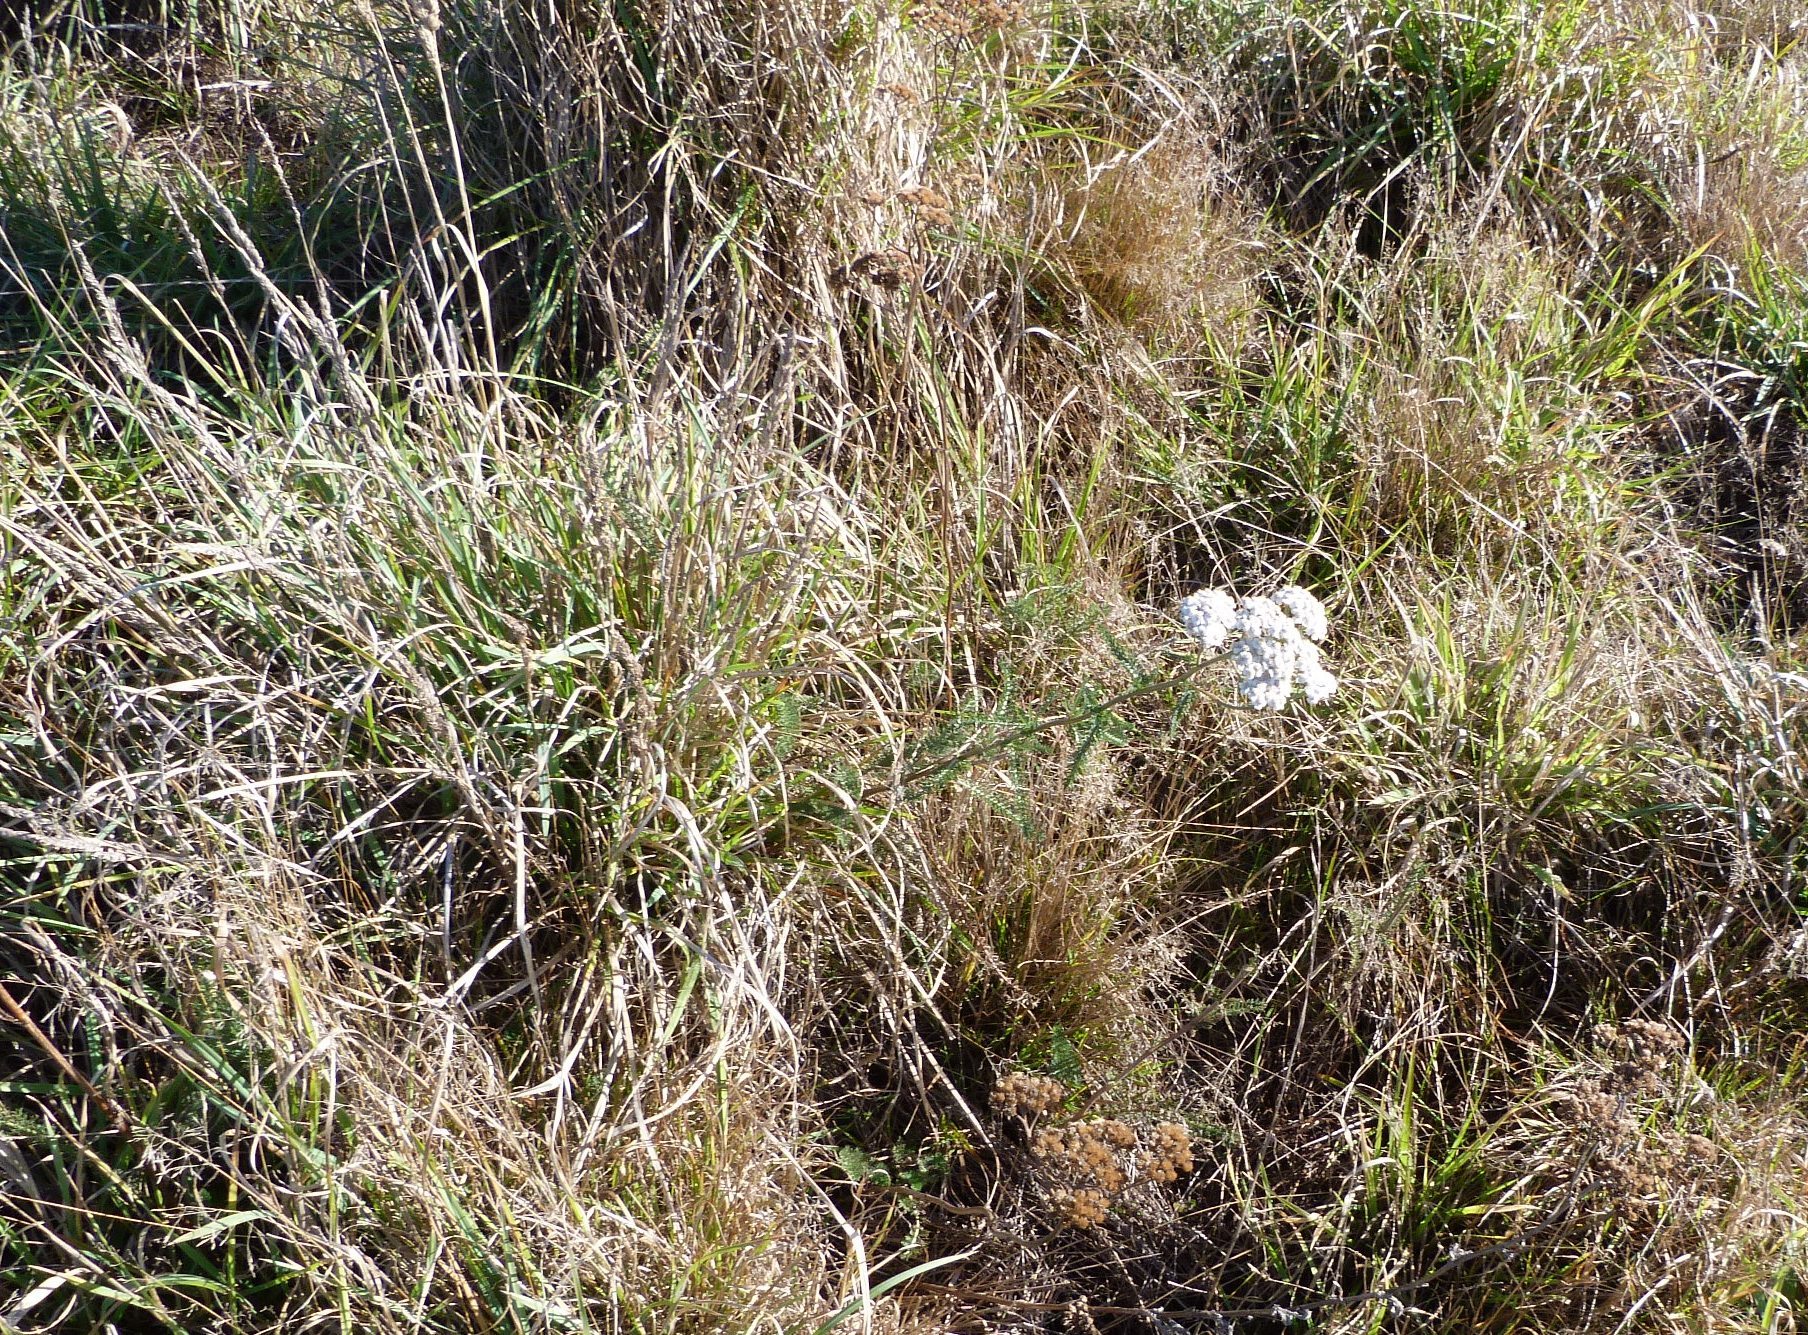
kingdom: Plantae
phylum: Tracheophyta
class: Magnoliopsida
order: Asterales
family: Asteraceae
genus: Achillea
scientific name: Achillea millefolium
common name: Yarrow
